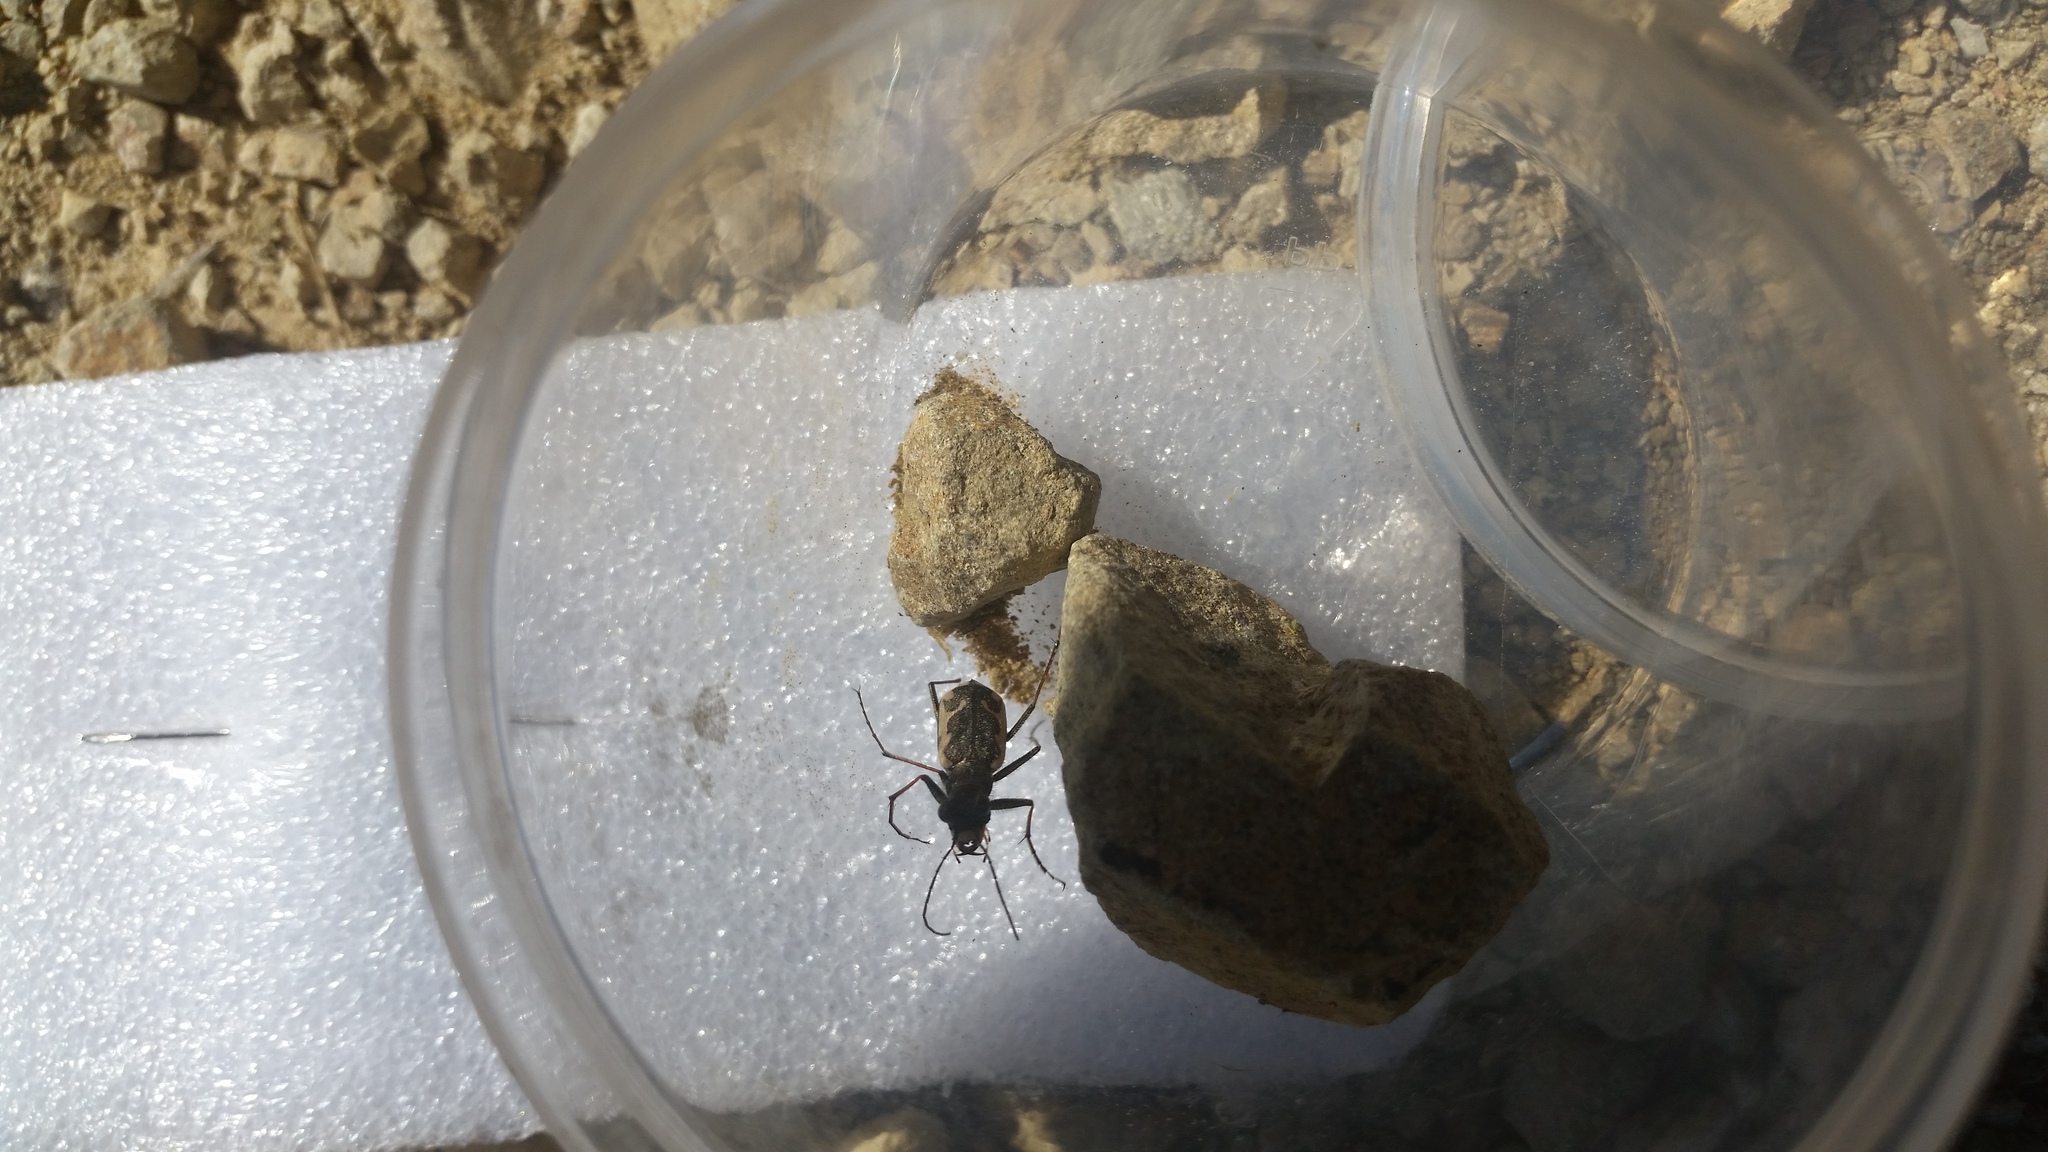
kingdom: Animalia
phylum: Arthropoda
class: Insecta
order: Coleoptera
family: Carabidae
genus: Neocicindela
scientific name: Neocicindela tuberculata
